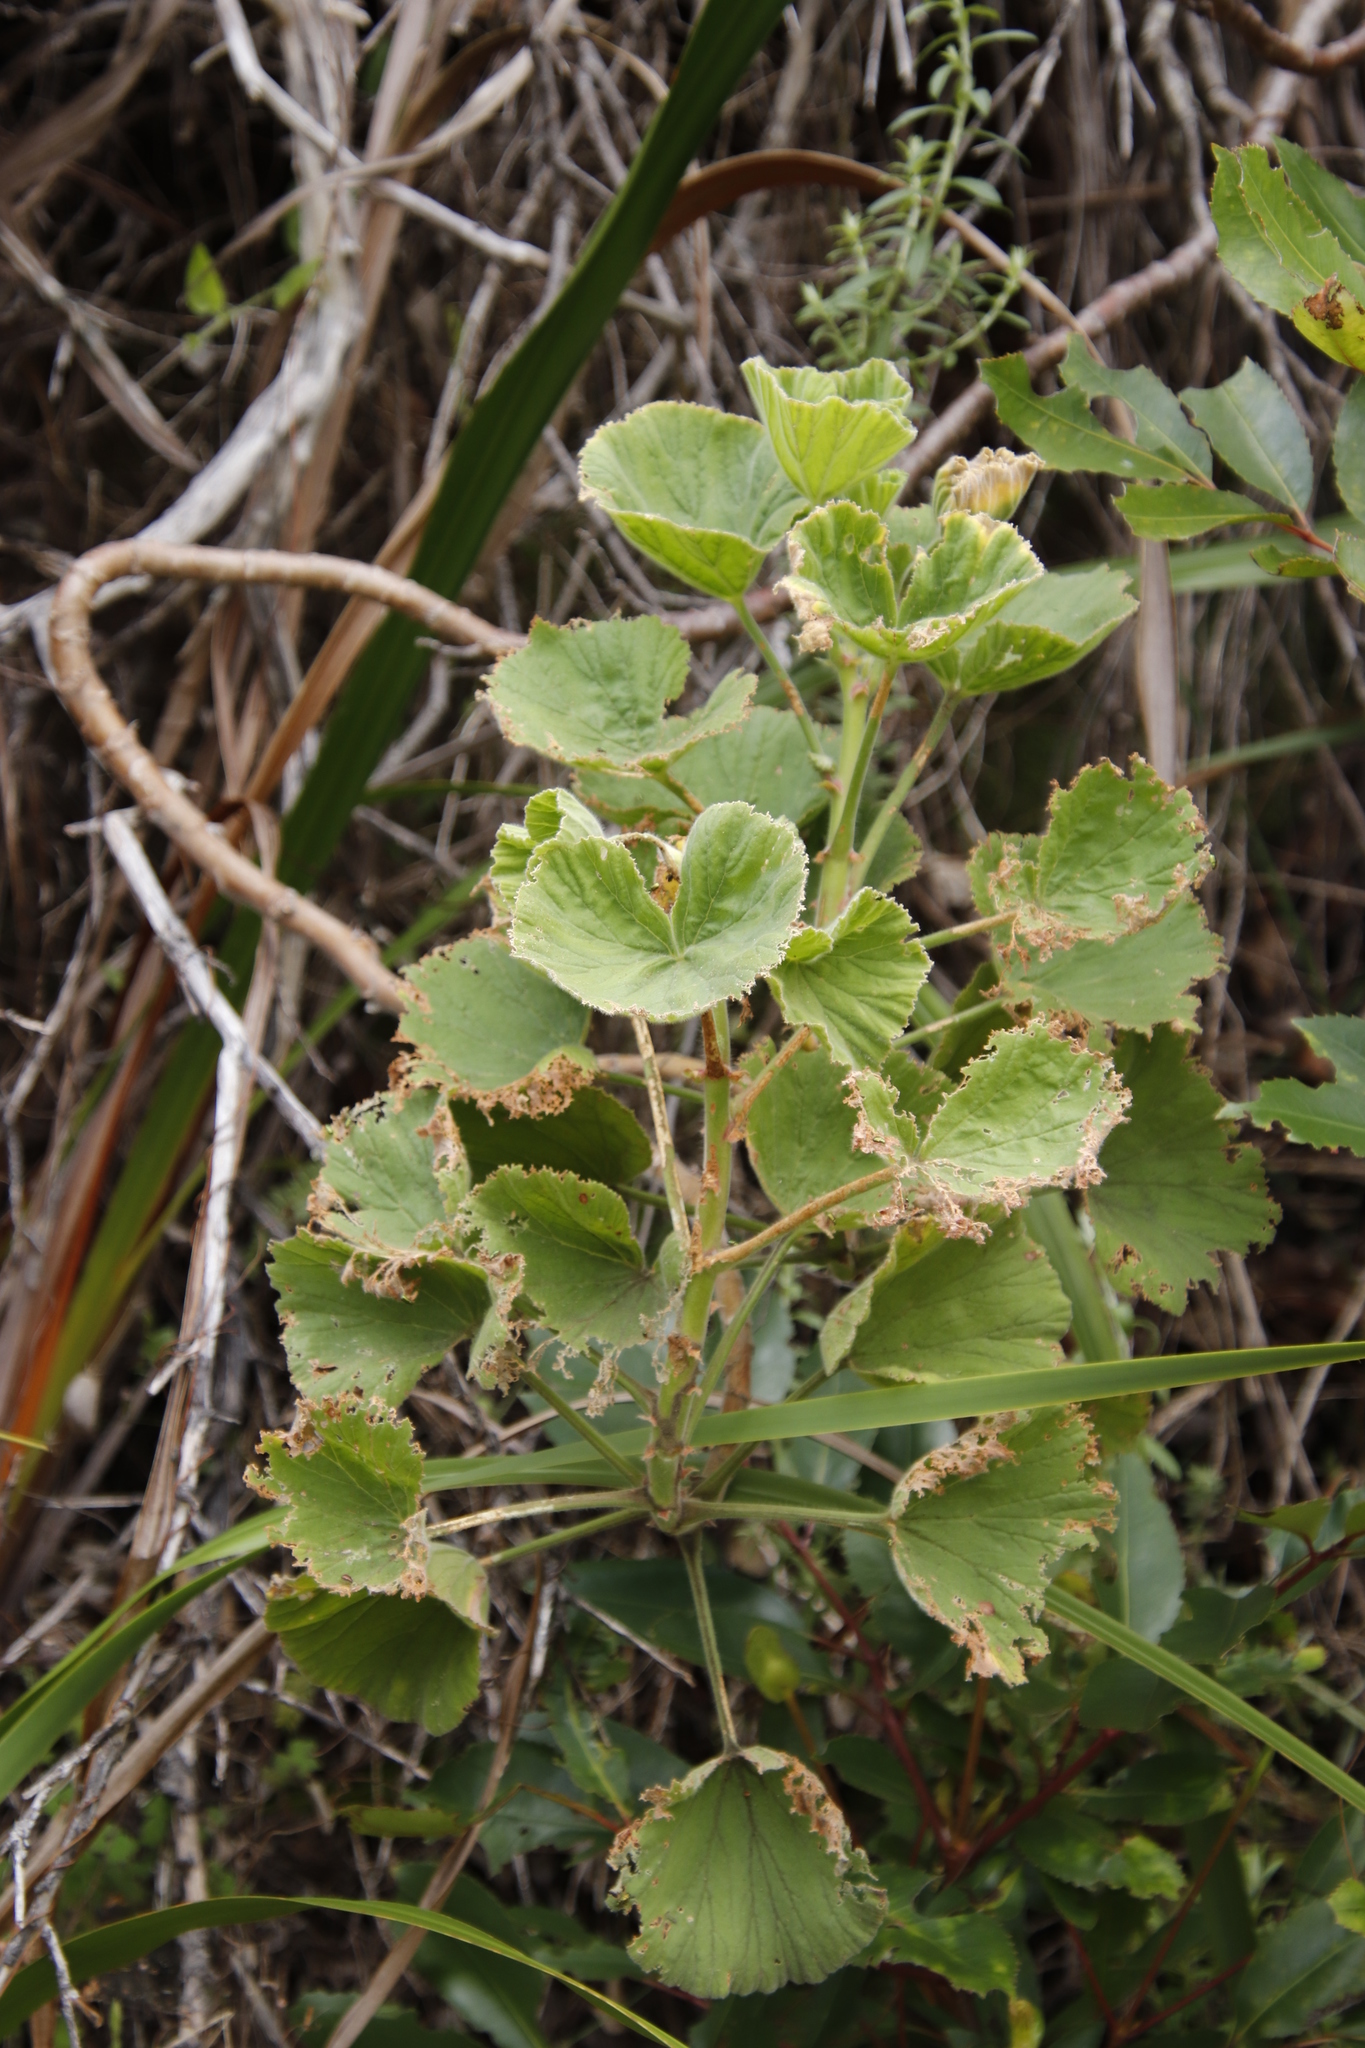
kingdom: Plantae
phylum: Tracheophyta
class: Magnoliopsida
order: Geraniales
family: Geraniaceae
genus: Pelargonium
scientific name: Pelargonium cucullatum
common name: Tree pelargonium
